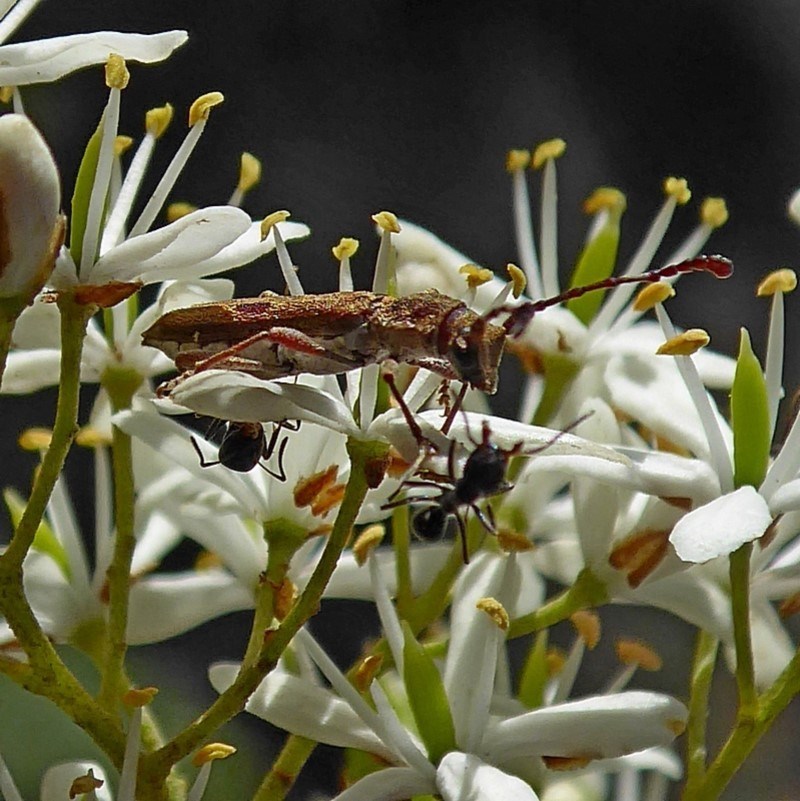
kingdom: Animalia
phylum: Arthropoda
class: Insecta
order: Coleoptera
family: Cerambycidae
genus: Pempsamacra
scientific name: Pempsamacra tillides
